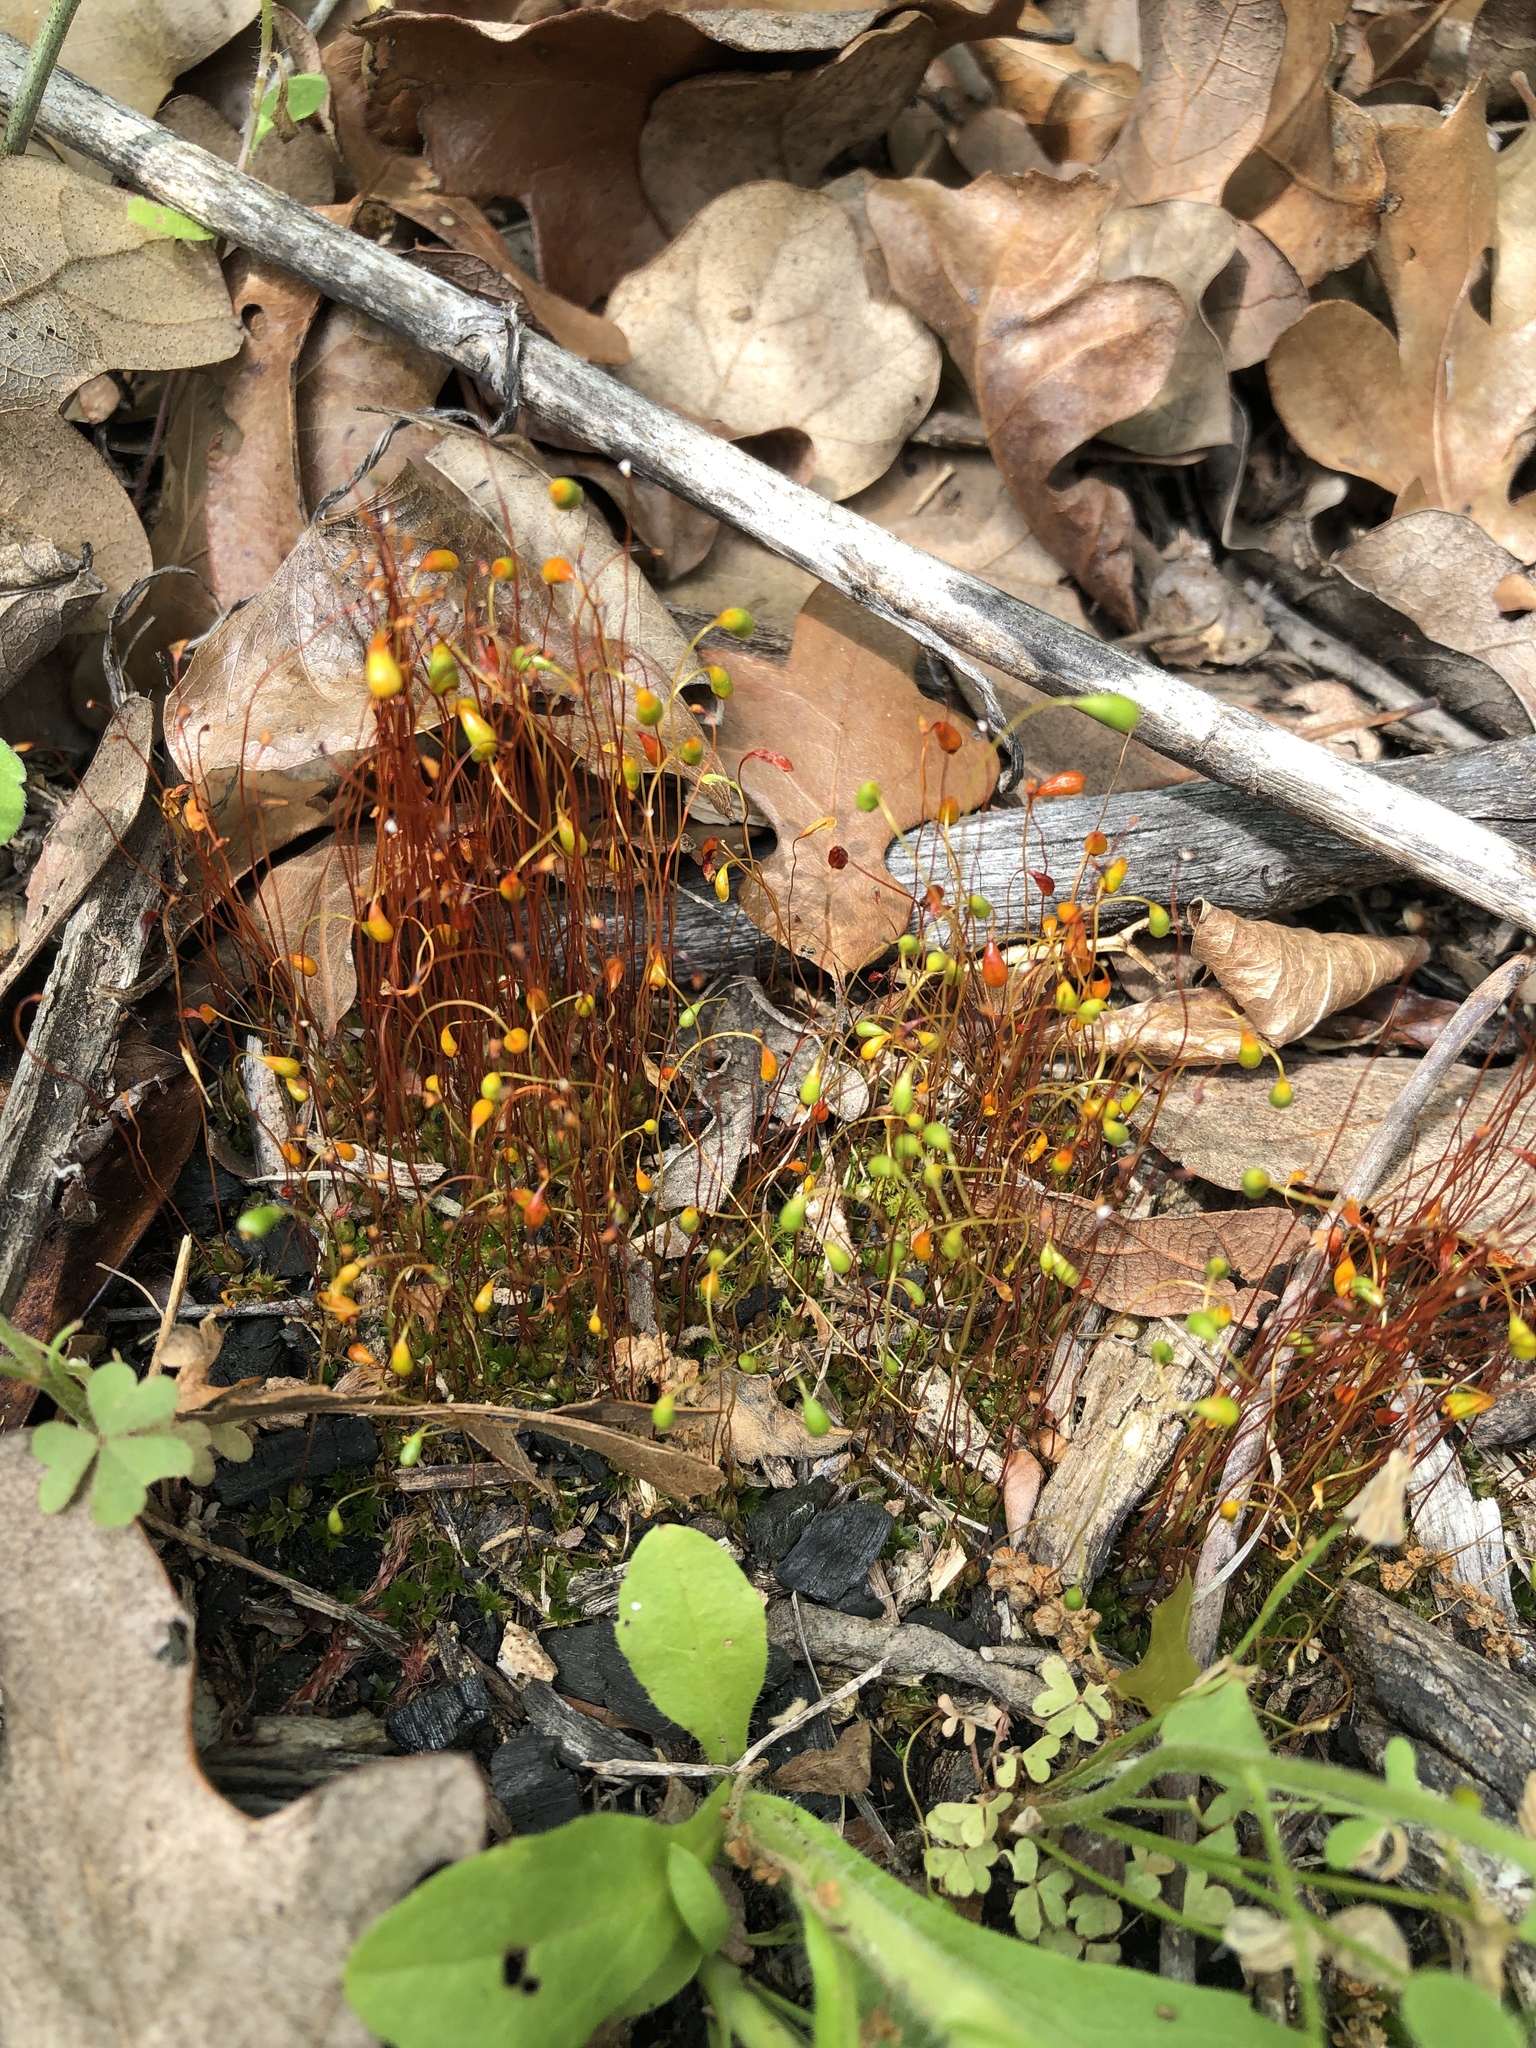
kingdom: Plantae
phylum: Bryophyta
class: Bryopsida
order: Funariales
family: Funariaceae
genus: Funaria
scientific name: Funaria hygrometrica
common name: Common cord moss
